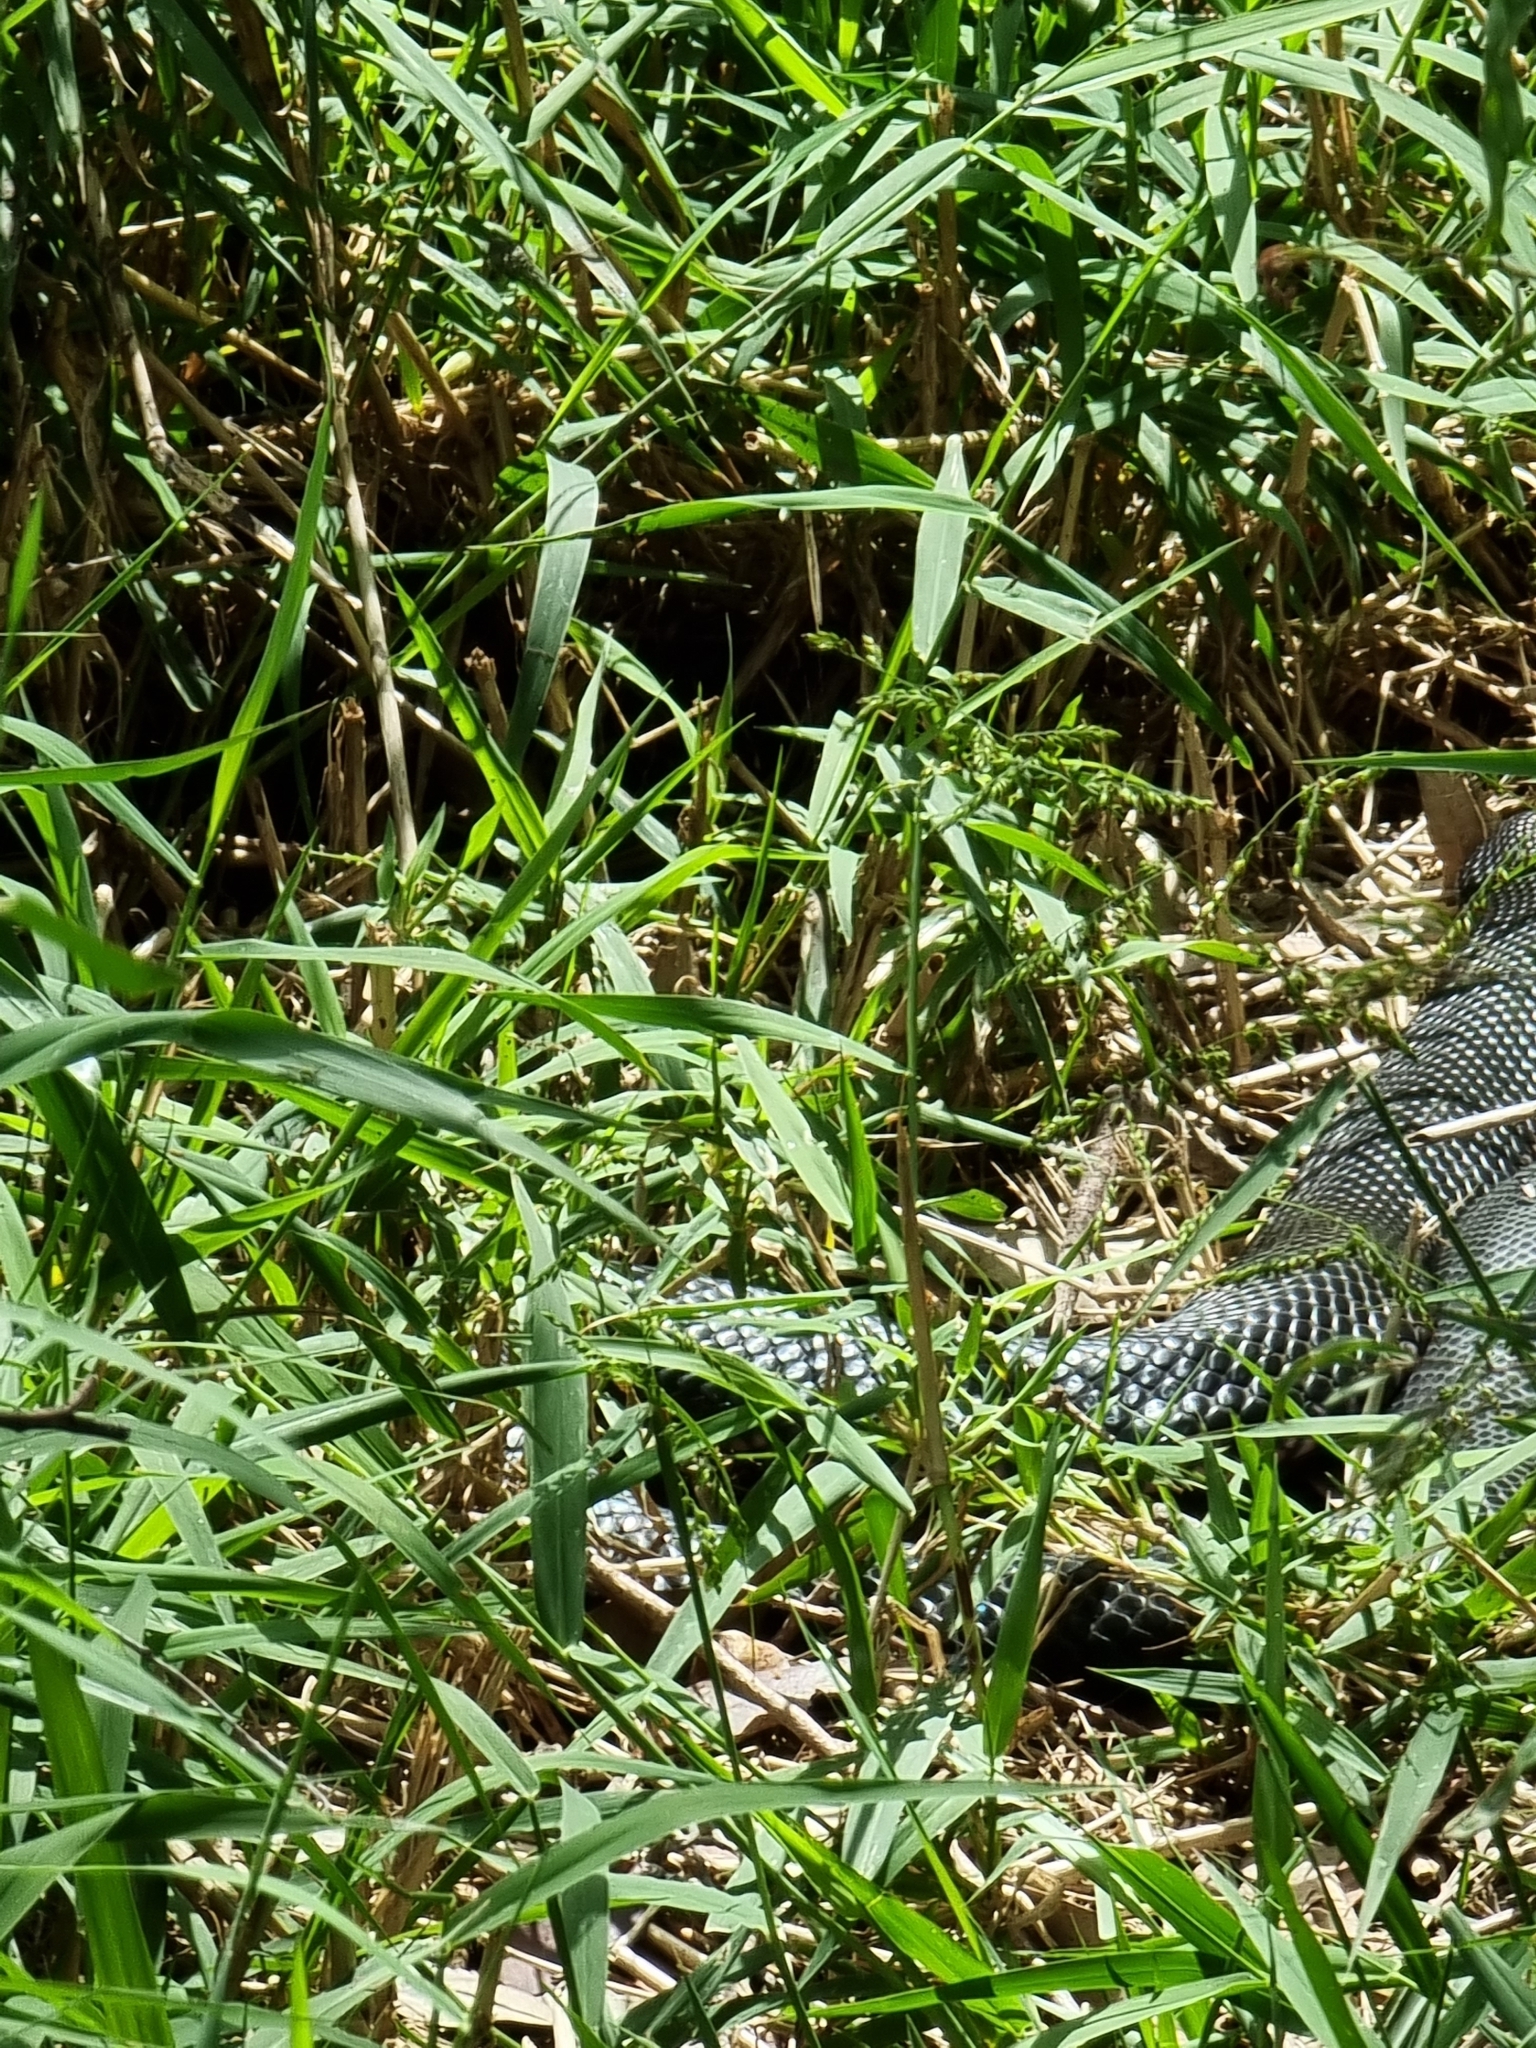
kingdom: Animalia
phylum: Chordata
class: Squamata
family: Elapidae
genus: Pseudechis
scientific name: Pseudechis porphyriacus
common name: Australian black snake
